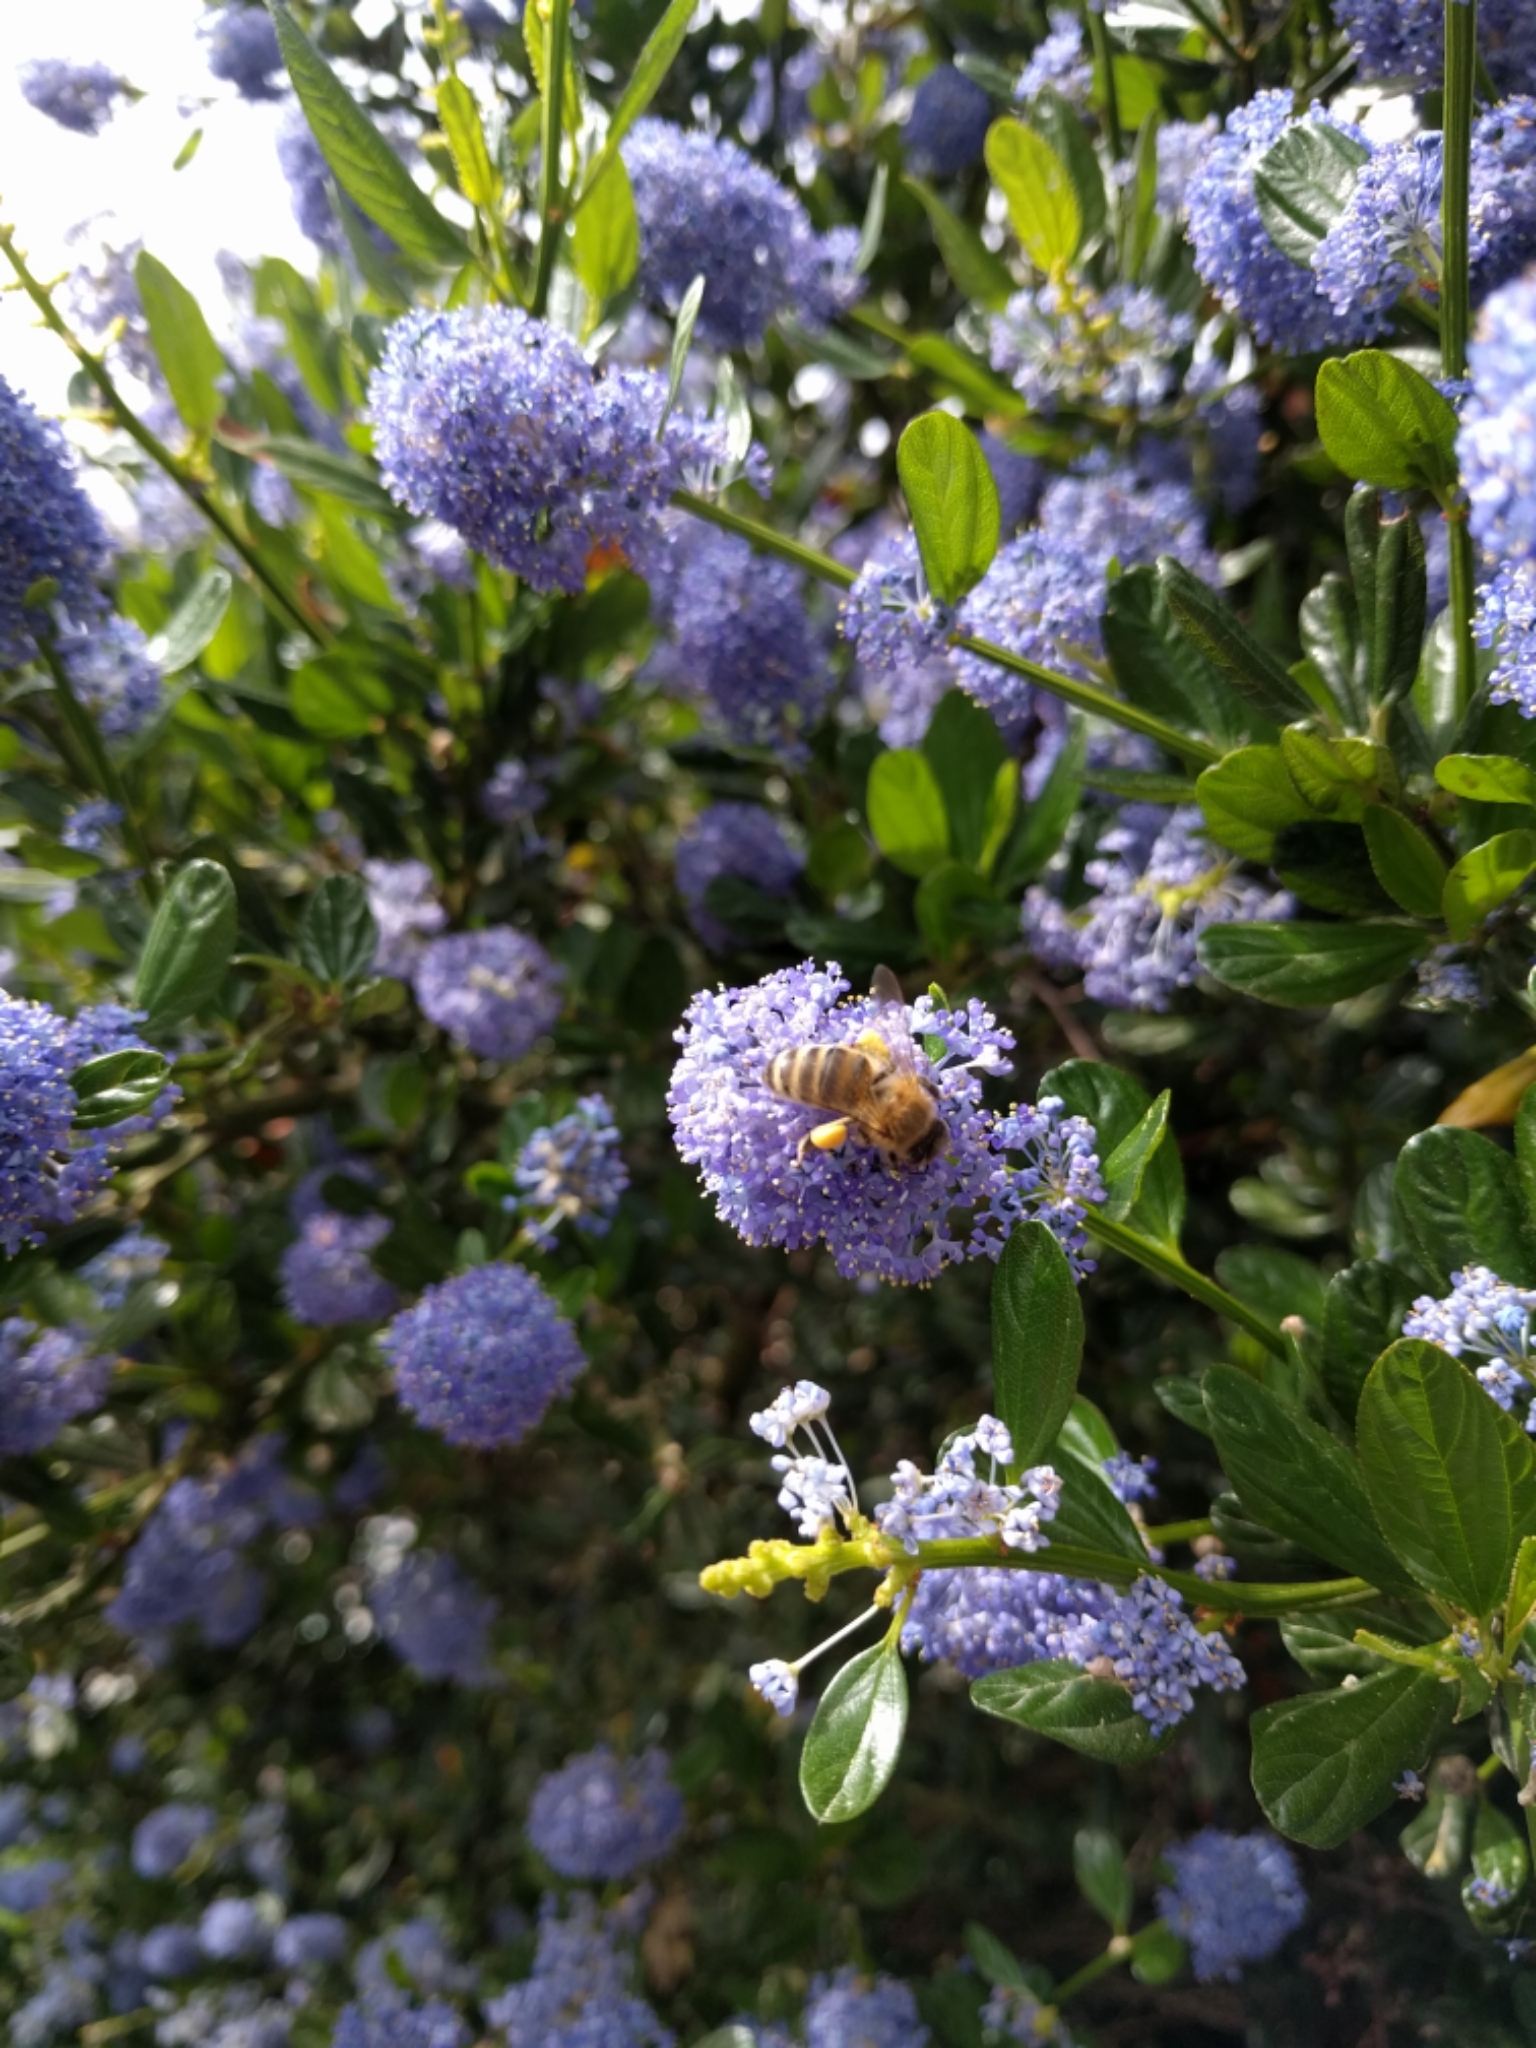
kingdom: Animalia
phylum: Arthropoda
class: Insecta
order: Hymenoptera
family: Apidae
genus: Apis
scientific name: Apis mellifera
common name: Honey bee
